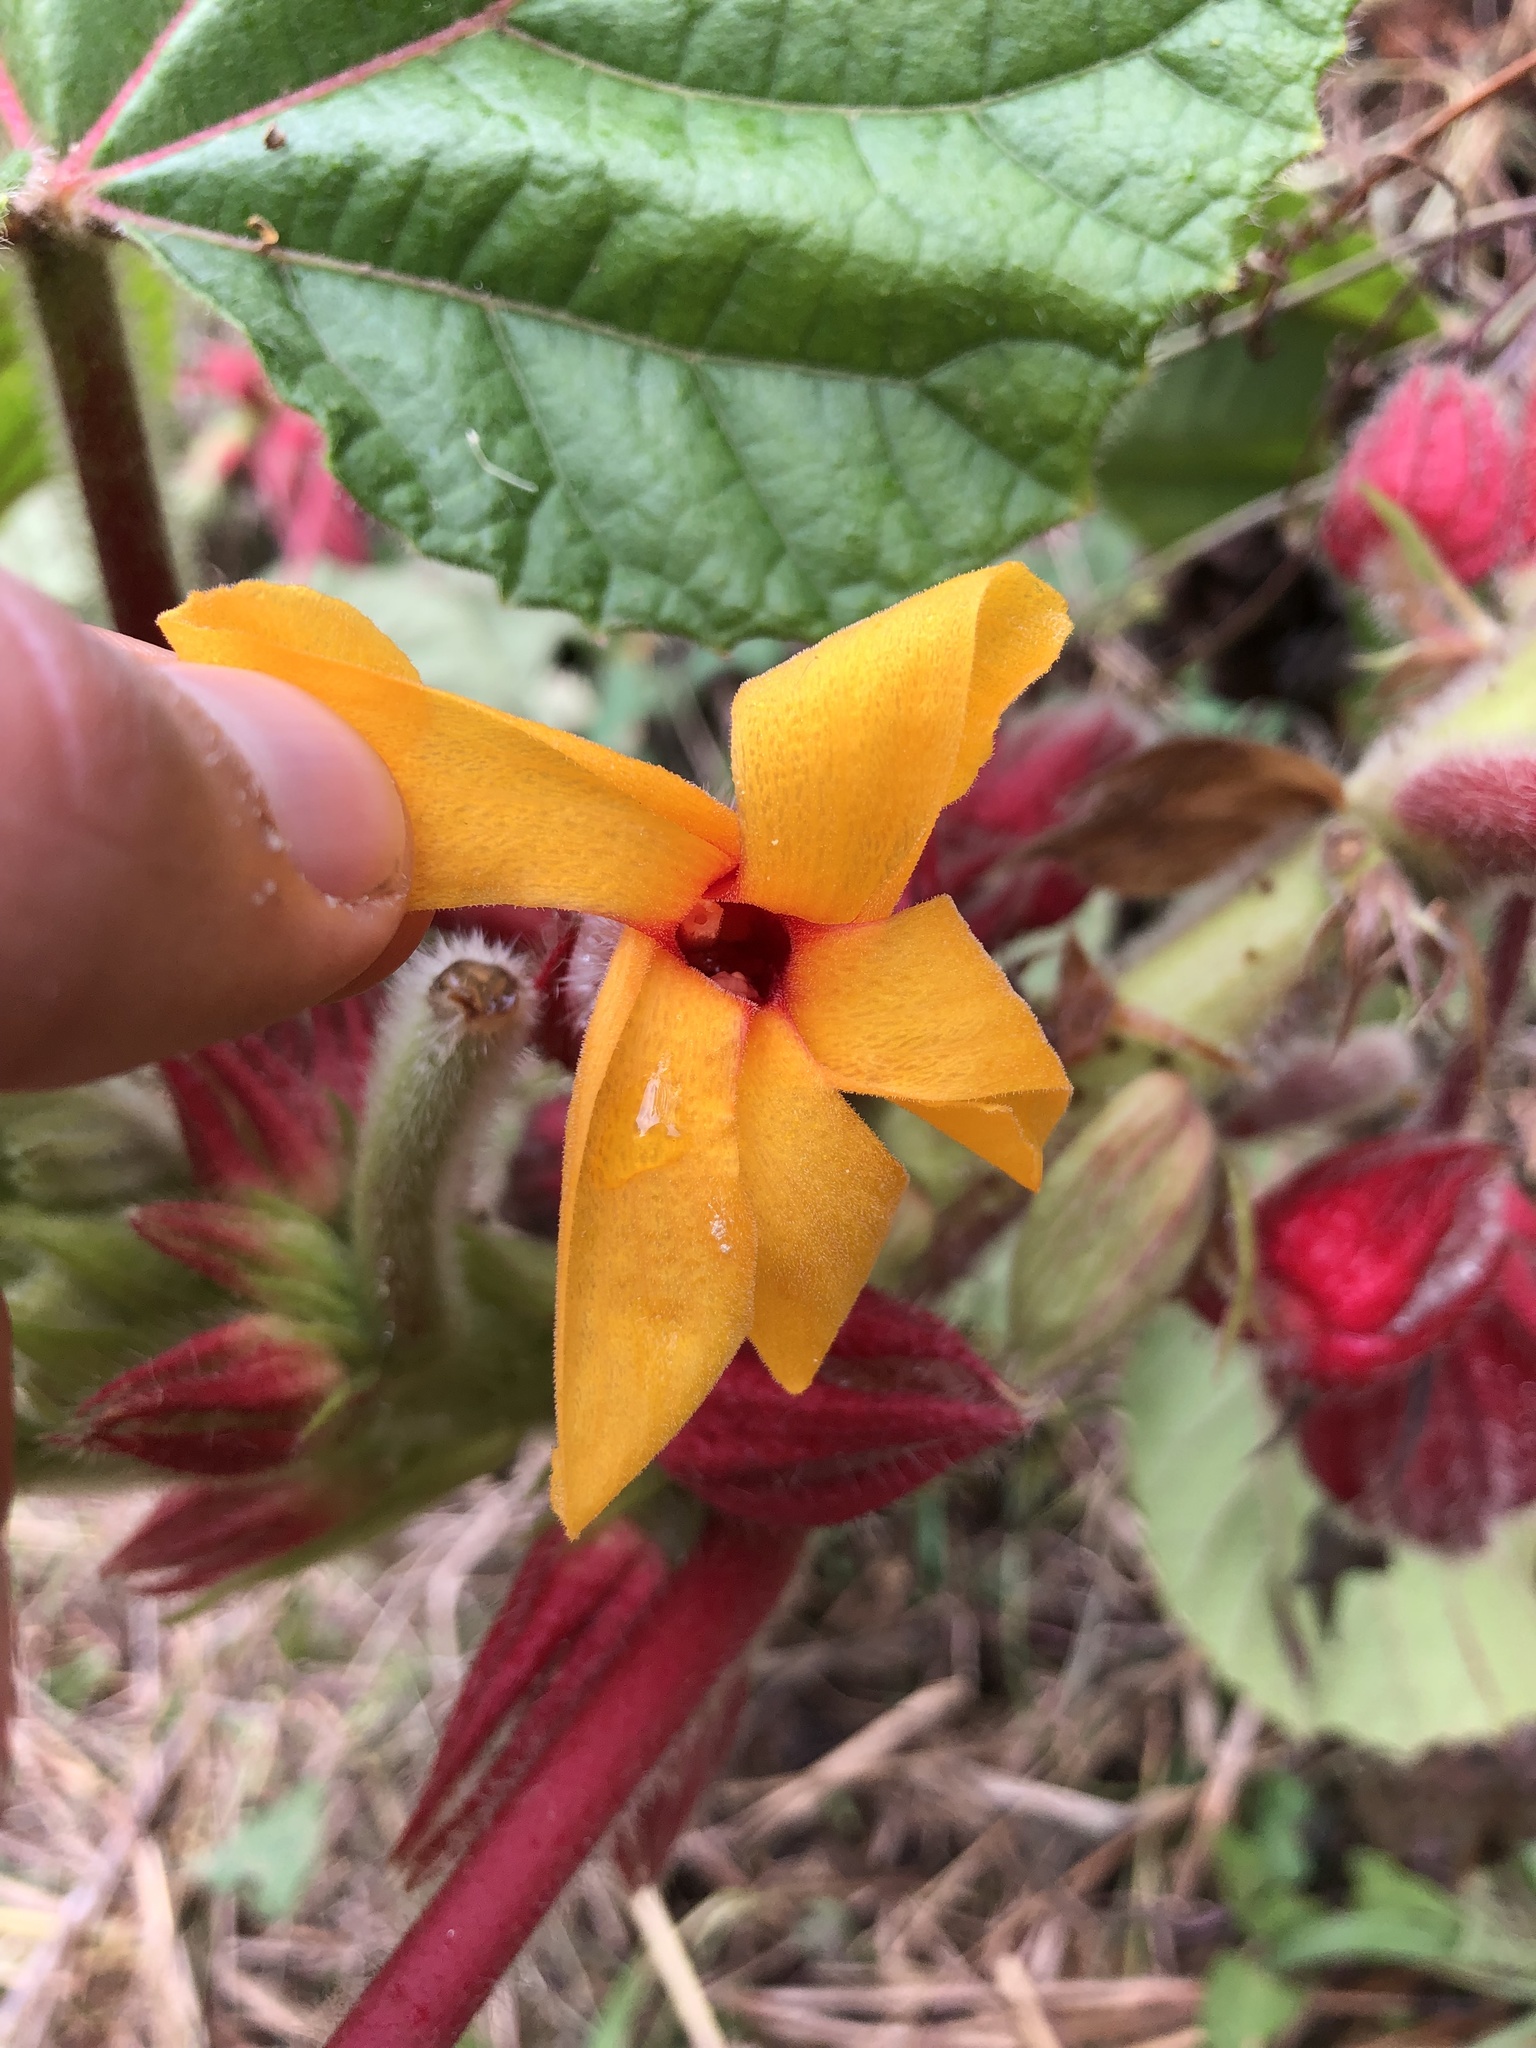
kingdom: Plantae
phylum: Tracheophyta
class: Magnoliopsida
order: Malvales
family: Malvaceae
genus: Wercklea
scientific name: Wercklea ferox
